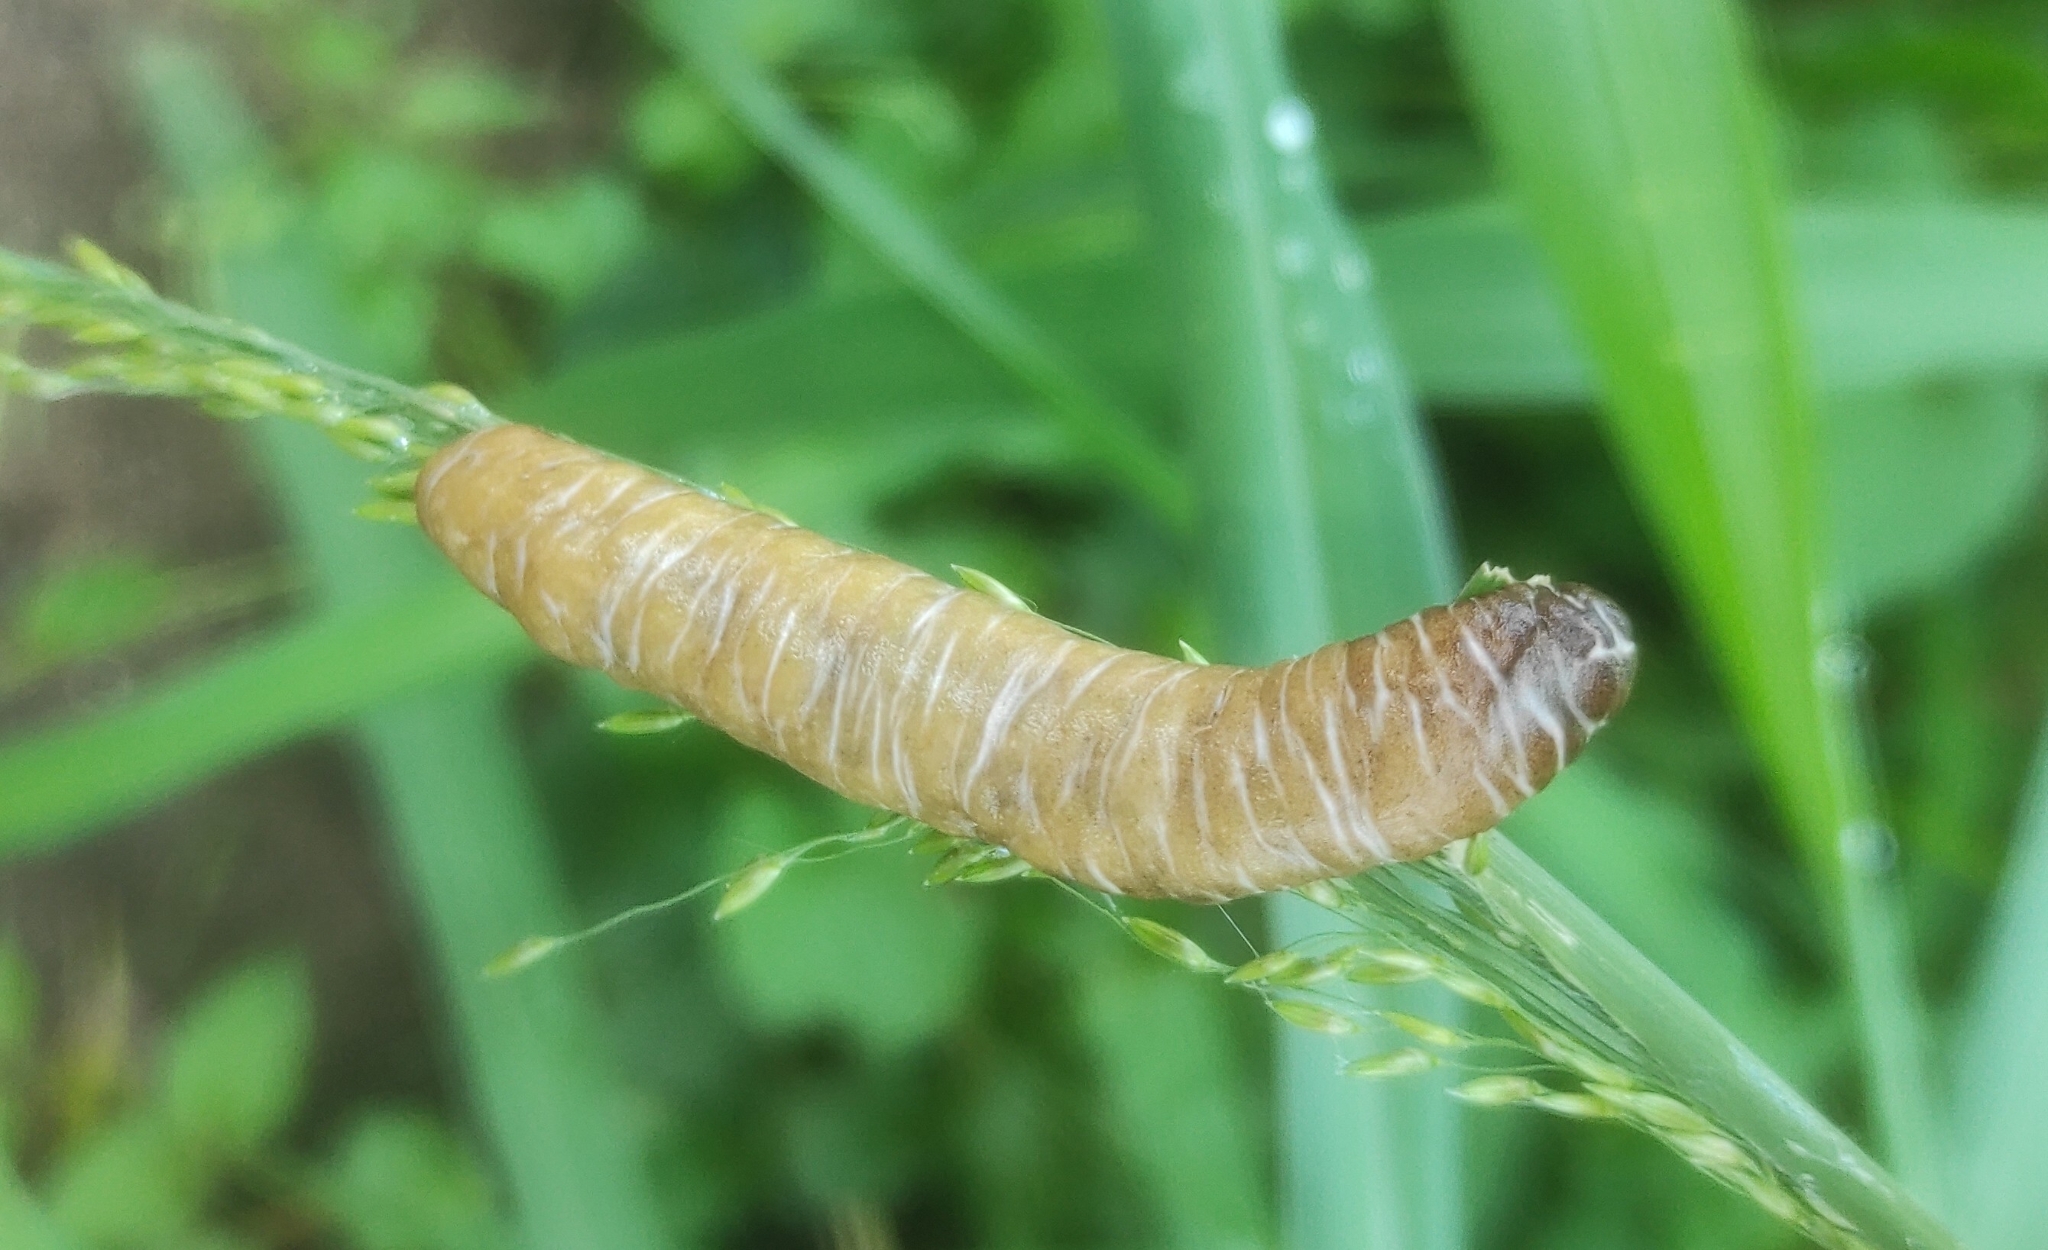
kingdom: Animalia
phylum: Mollusca
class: Gastropoda
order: Systellommatophora
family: Veronicellidae
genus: Laevicaulis
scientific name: Laevicaulis haroldi
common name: Caterpillar slug
